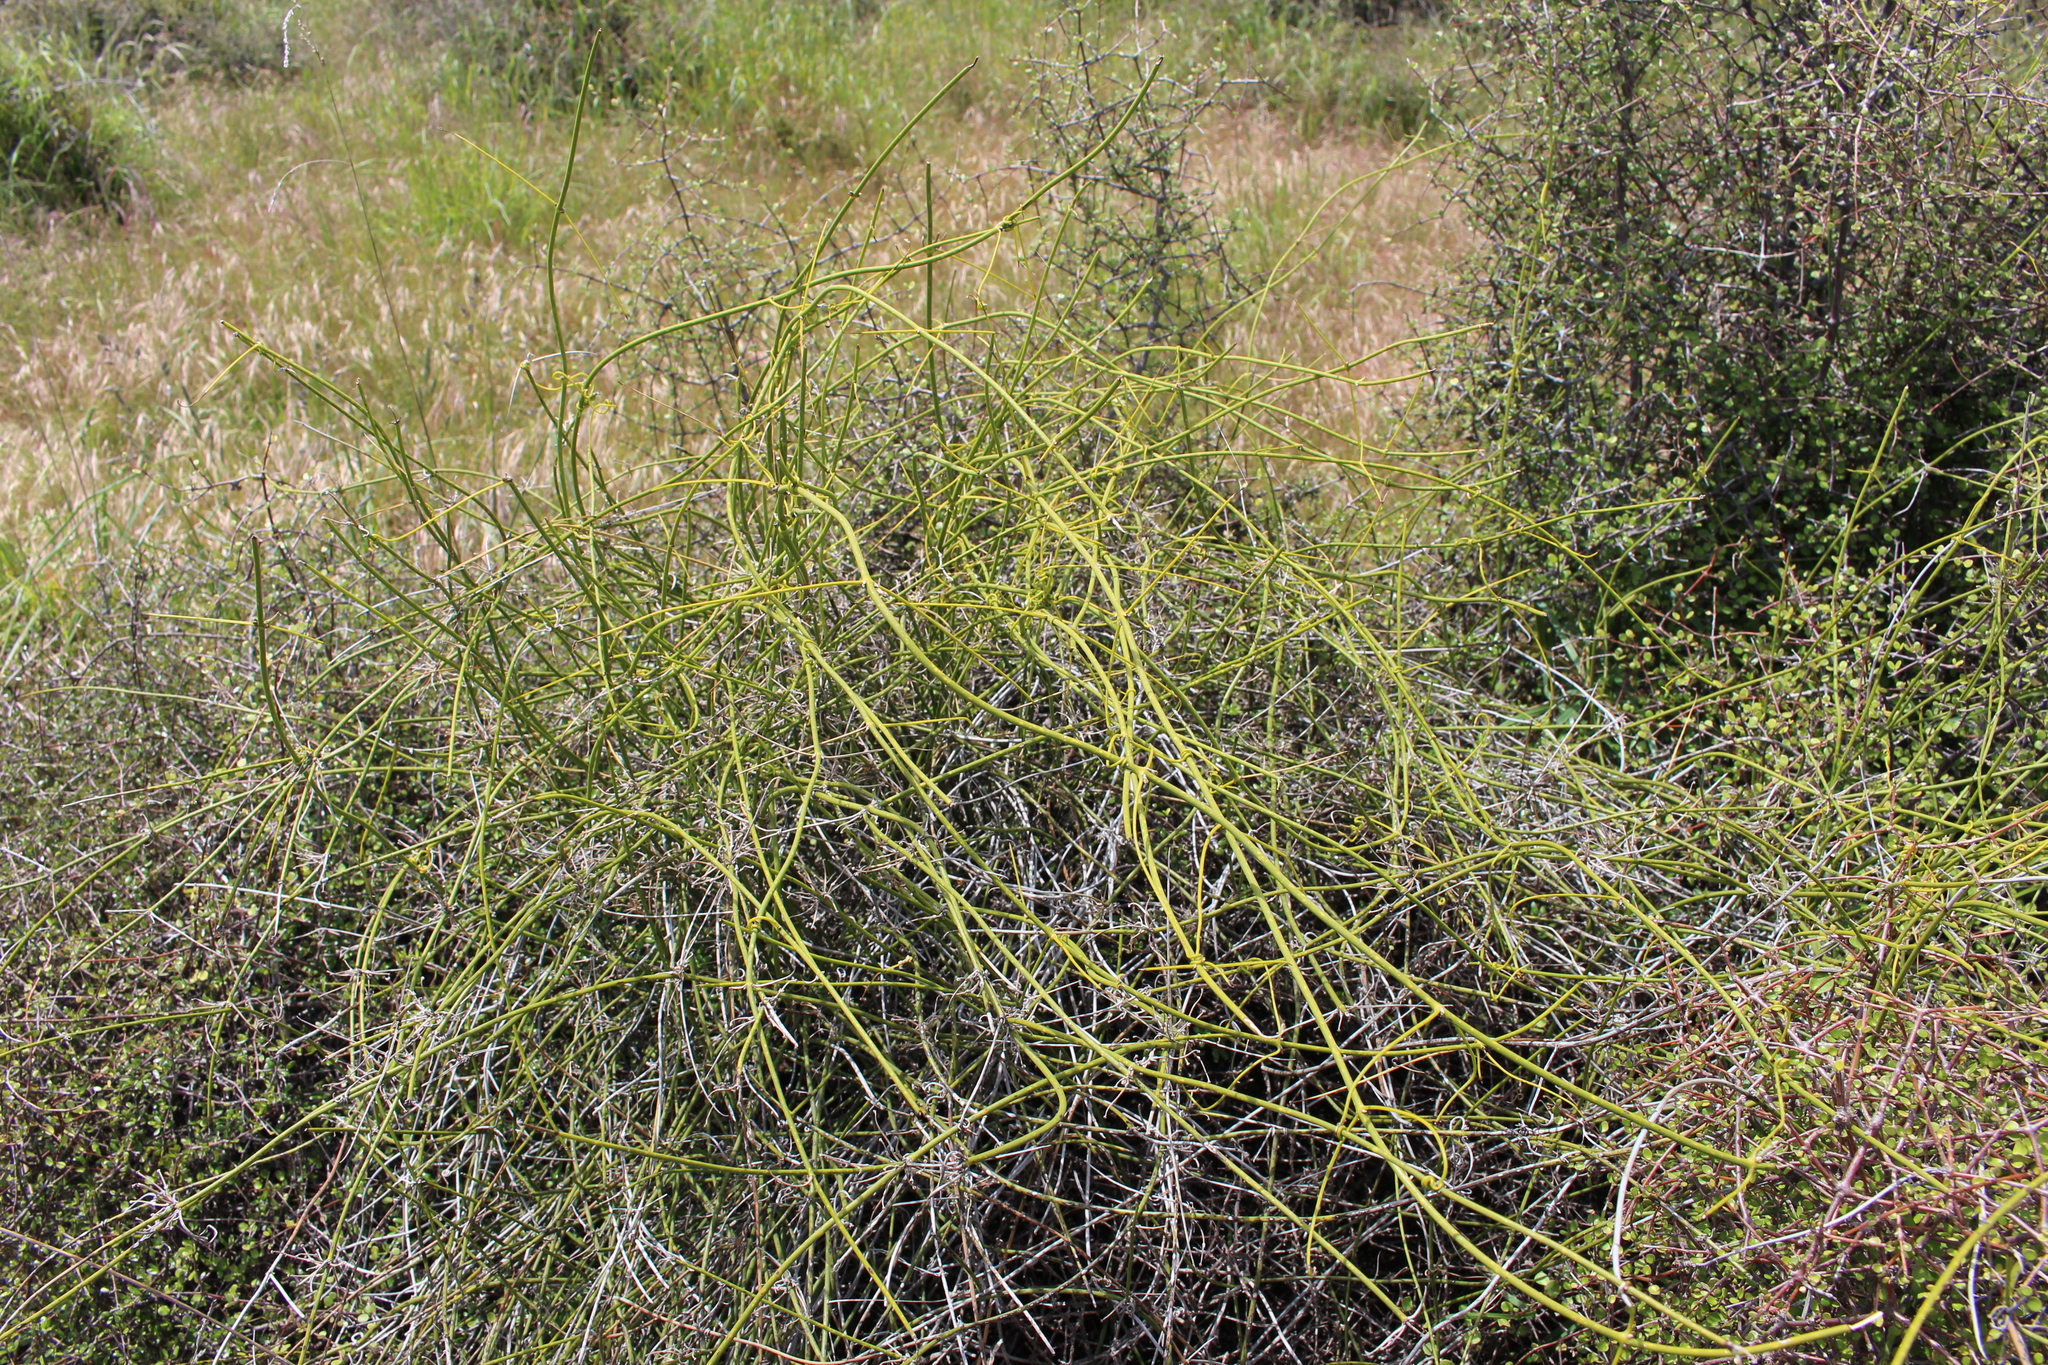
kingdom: Plantae
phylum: Tracheophyta
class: Magnoliopsida
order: Ranunculales
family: Ranunculaceae
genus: Clematis
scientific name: Clematis afoliata
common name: Rush-stem clematis
